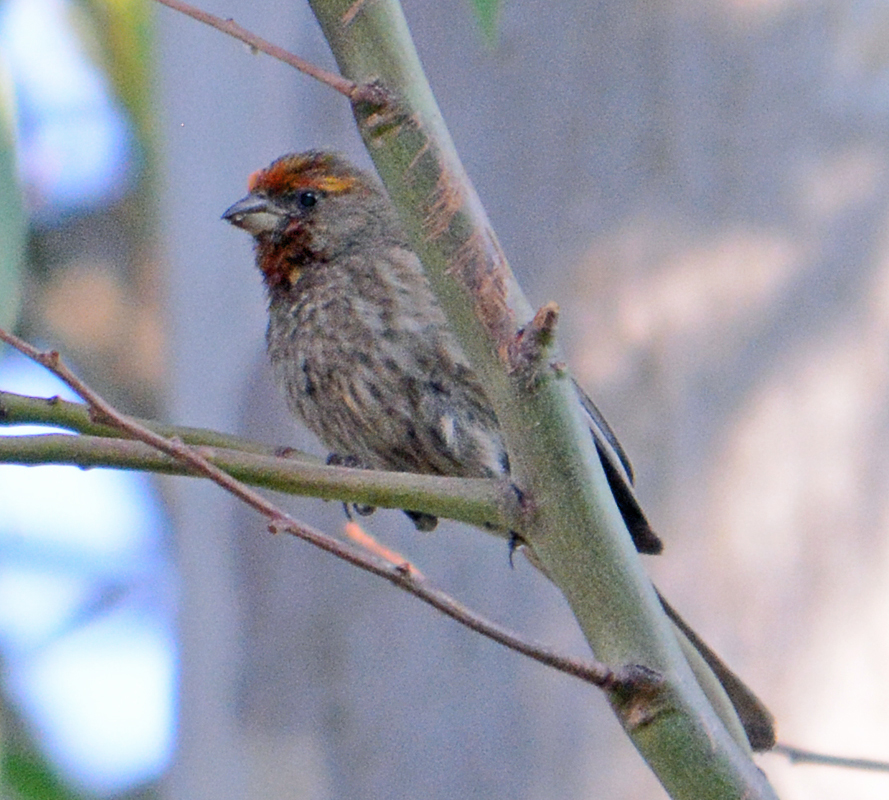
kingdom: Animalia
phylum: Chordata
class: Aves
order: Passeriformes
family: Fringillidae
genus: Haemorhous
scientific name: Haemorhous mexicanus
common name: House finch
